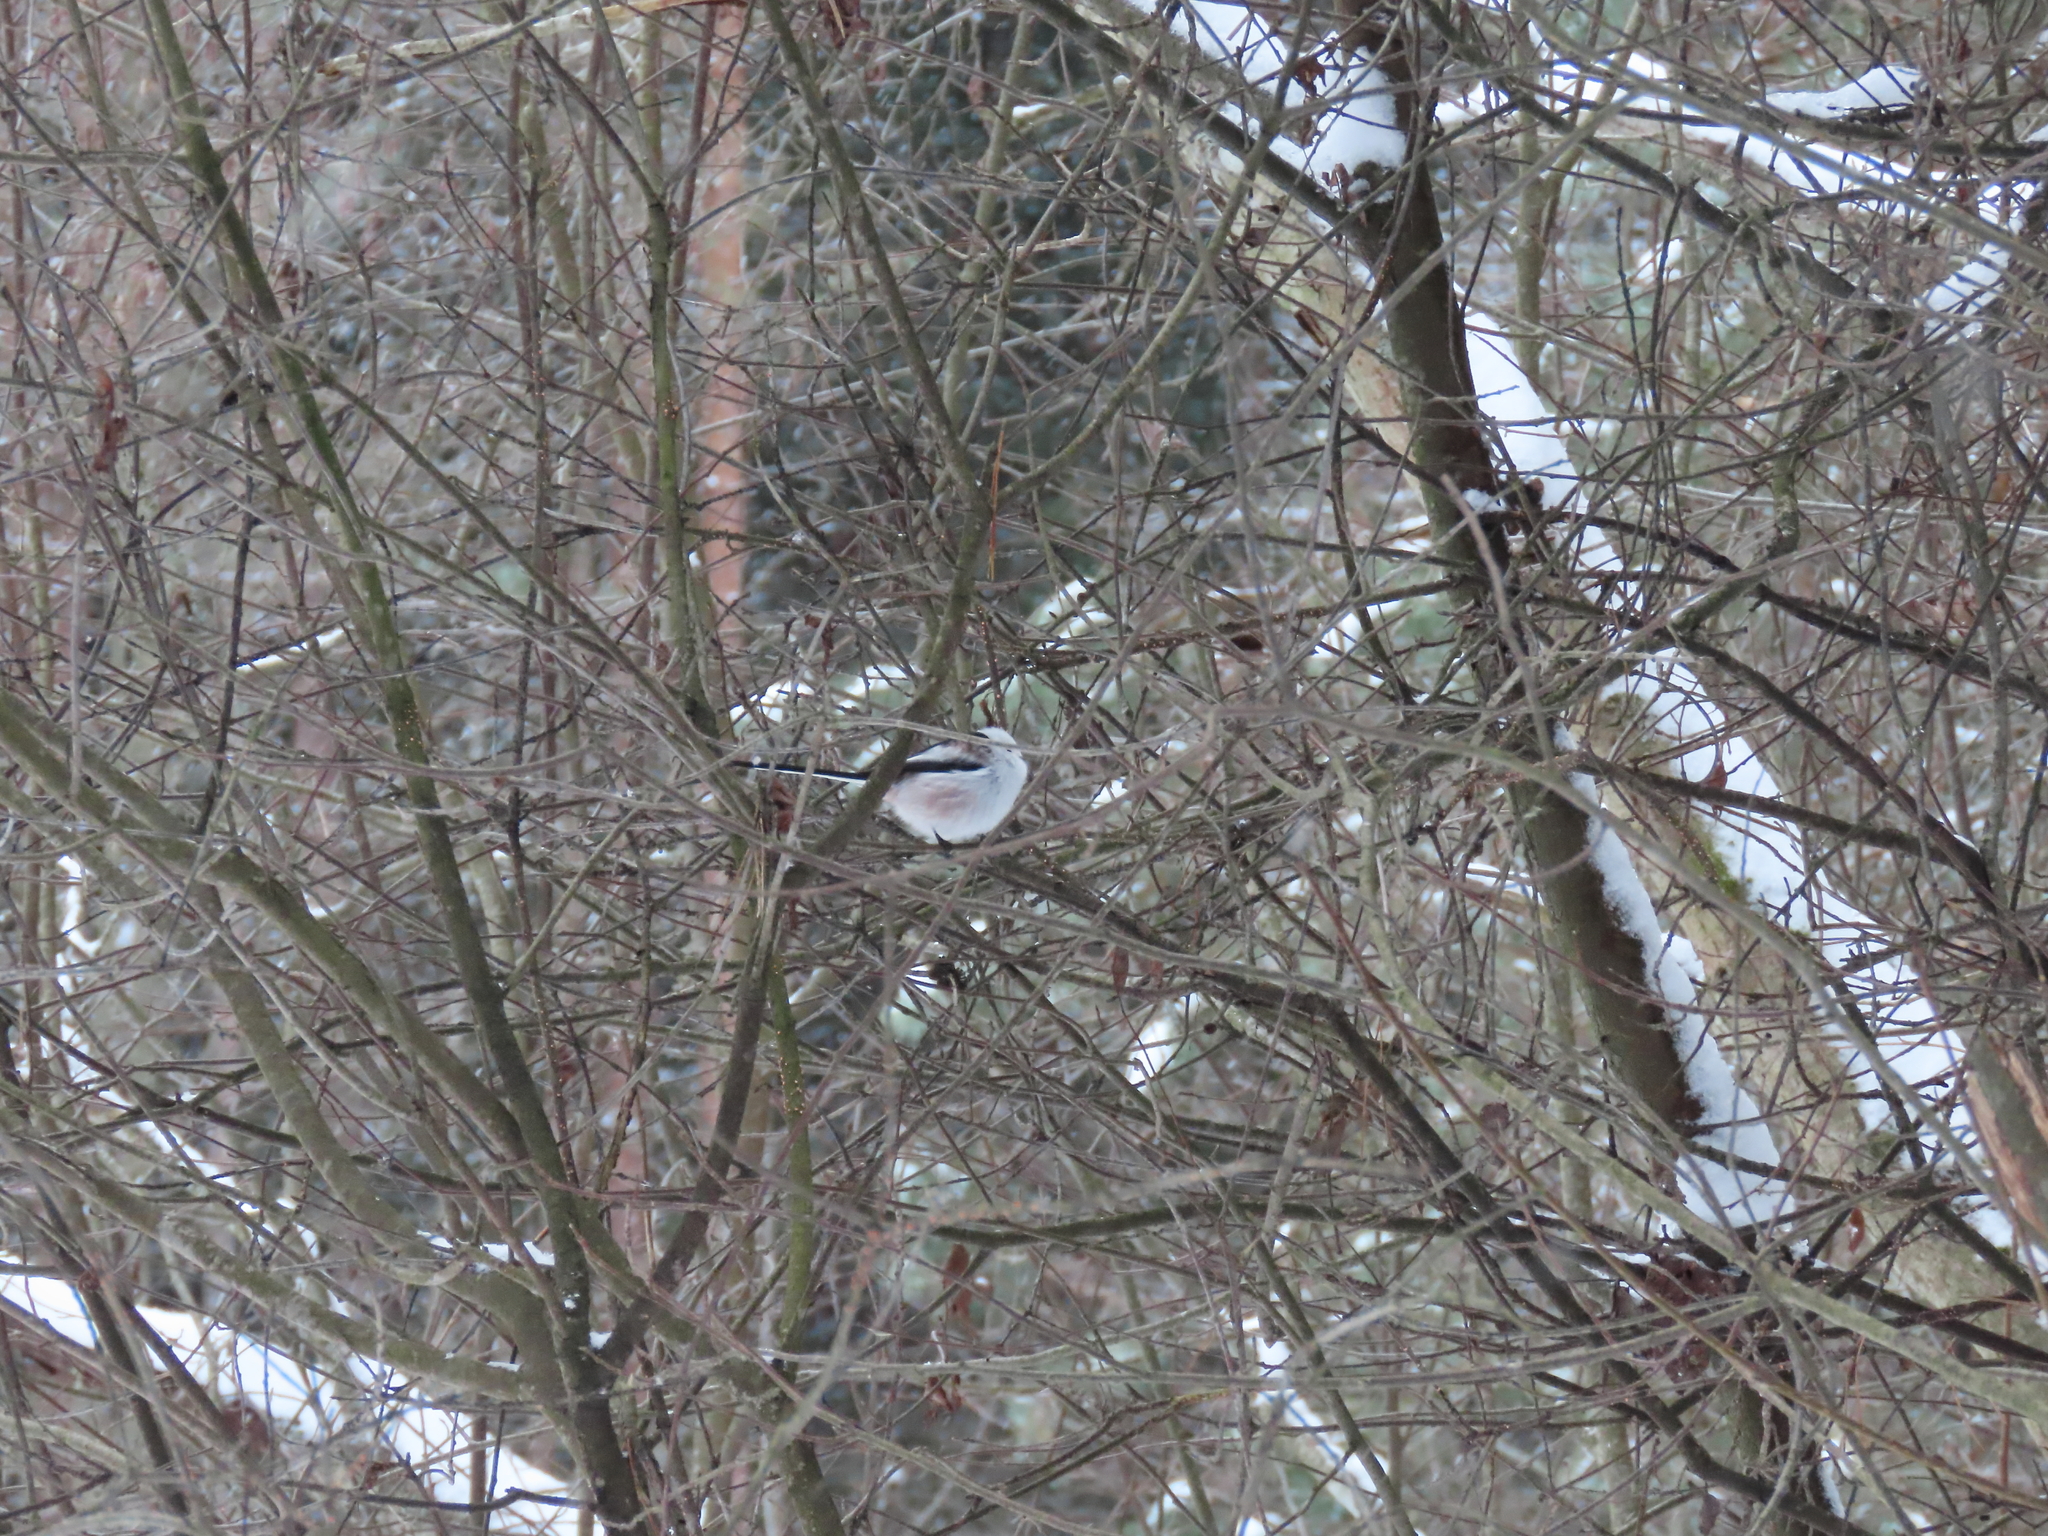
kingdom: Animalia
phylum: Chordata
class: Aves
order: Passeriformes
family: Aegithalidae
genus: Aegithalos
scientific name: Aegithalos caudatus
